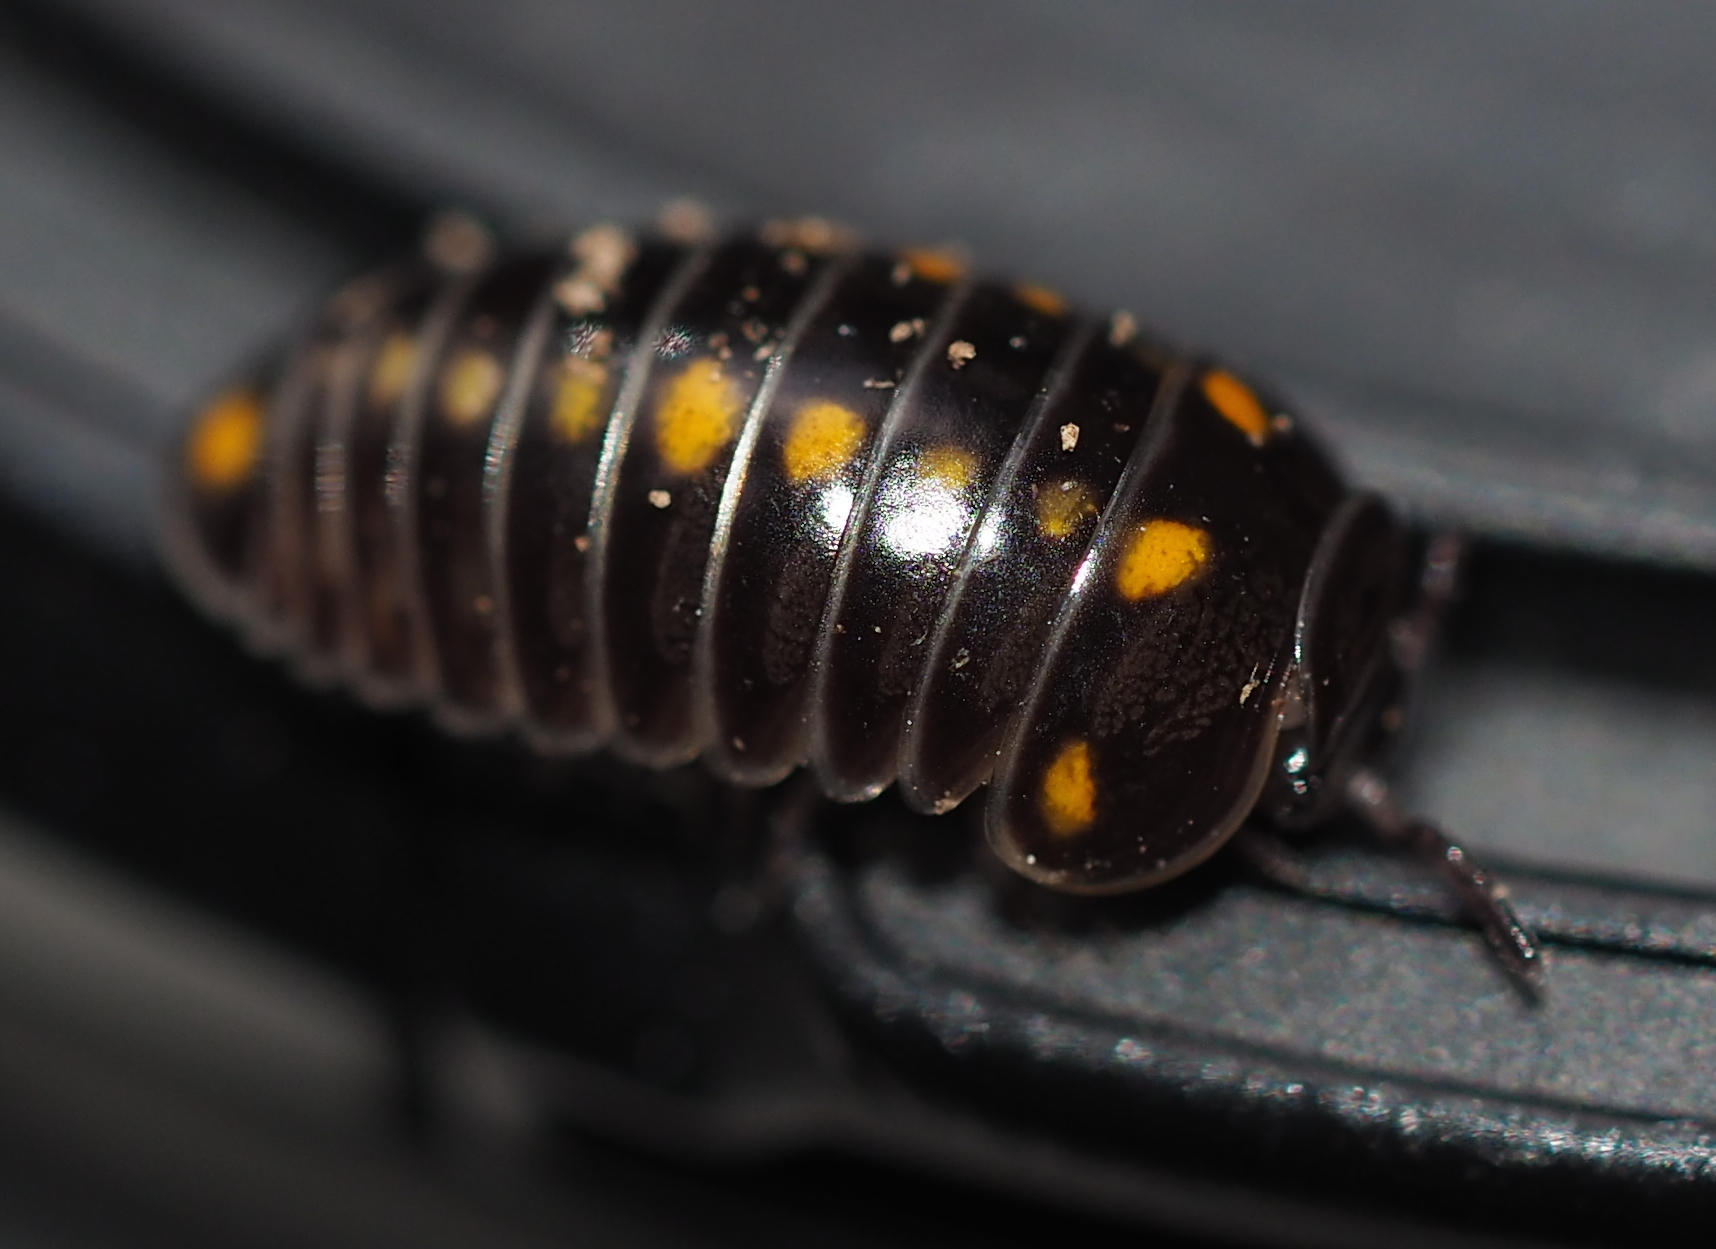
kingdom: Animalia
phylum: Arthropoda
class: Diplopoda
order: Glomerida
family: Glomeridae
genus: Glomeris
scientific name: Glomeris pustulata
